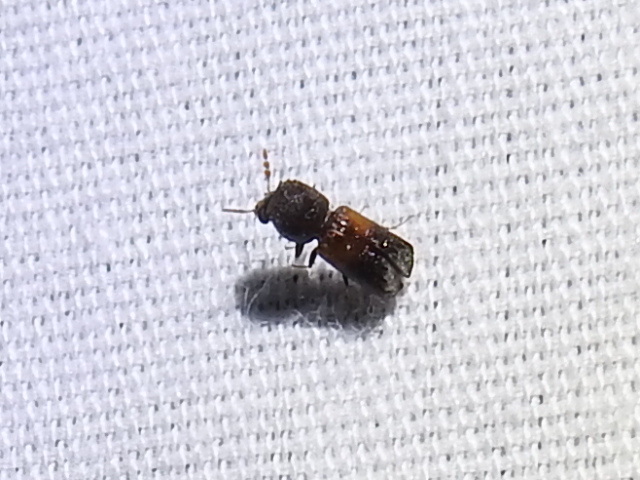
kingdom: Animalia
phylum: Arthropoda
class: Insecta
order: Coleoptera
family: Bostrichidae
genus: Xylobiops
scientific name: Xylobiops basilaris
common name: Red-shouldered bostrichid
